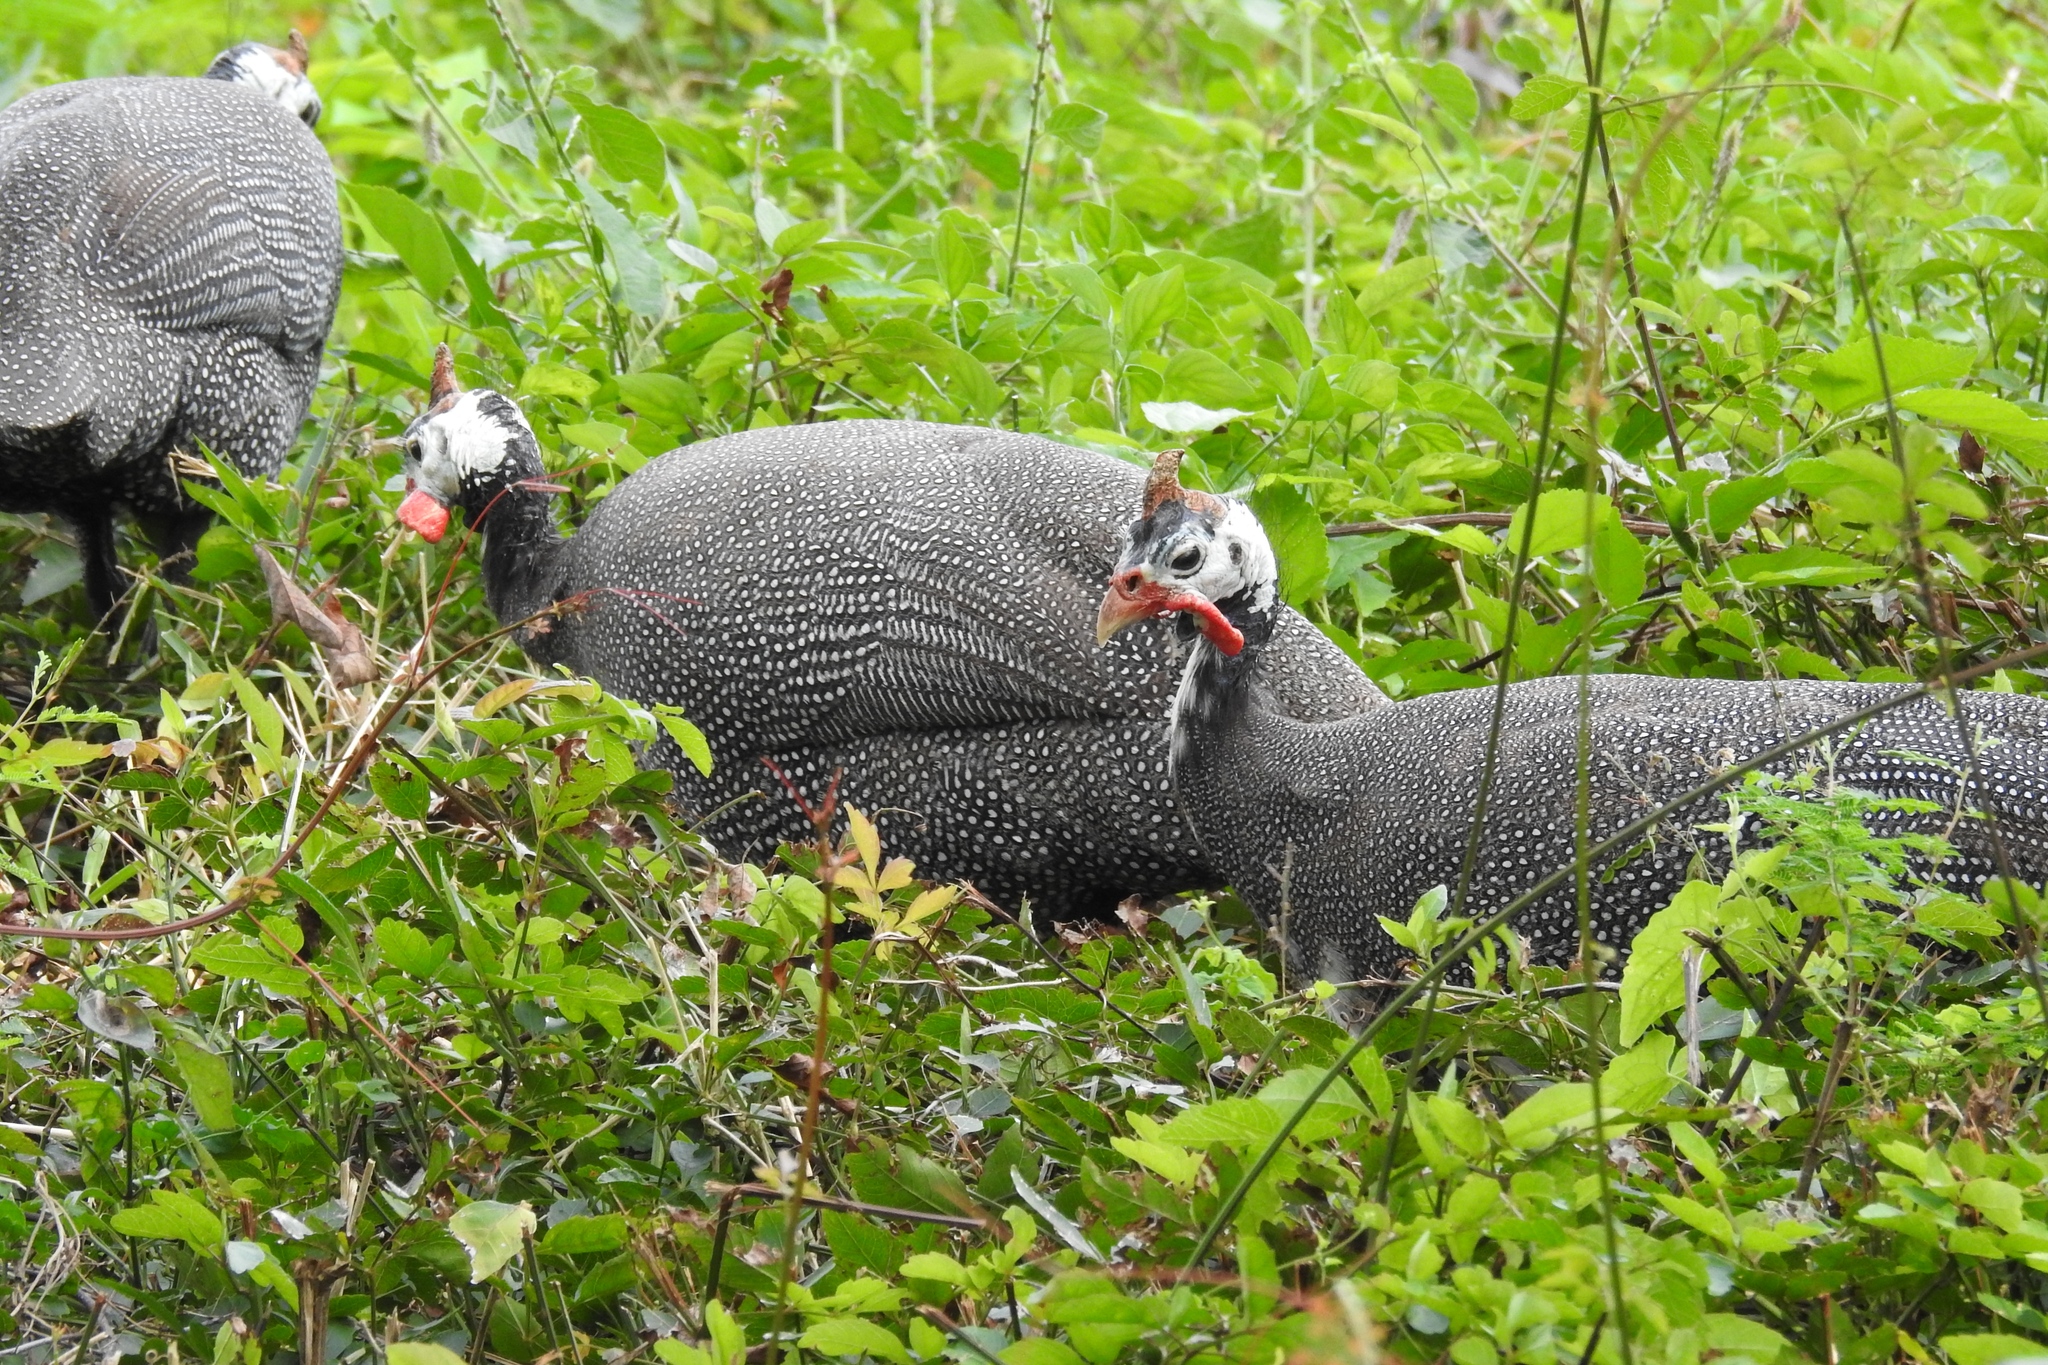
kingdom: Animalia
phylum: Chordata
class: Aves
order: Galliformes
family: Numididae
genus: Numida
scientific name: Numida meleagris
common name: Helmeted guineafowl
